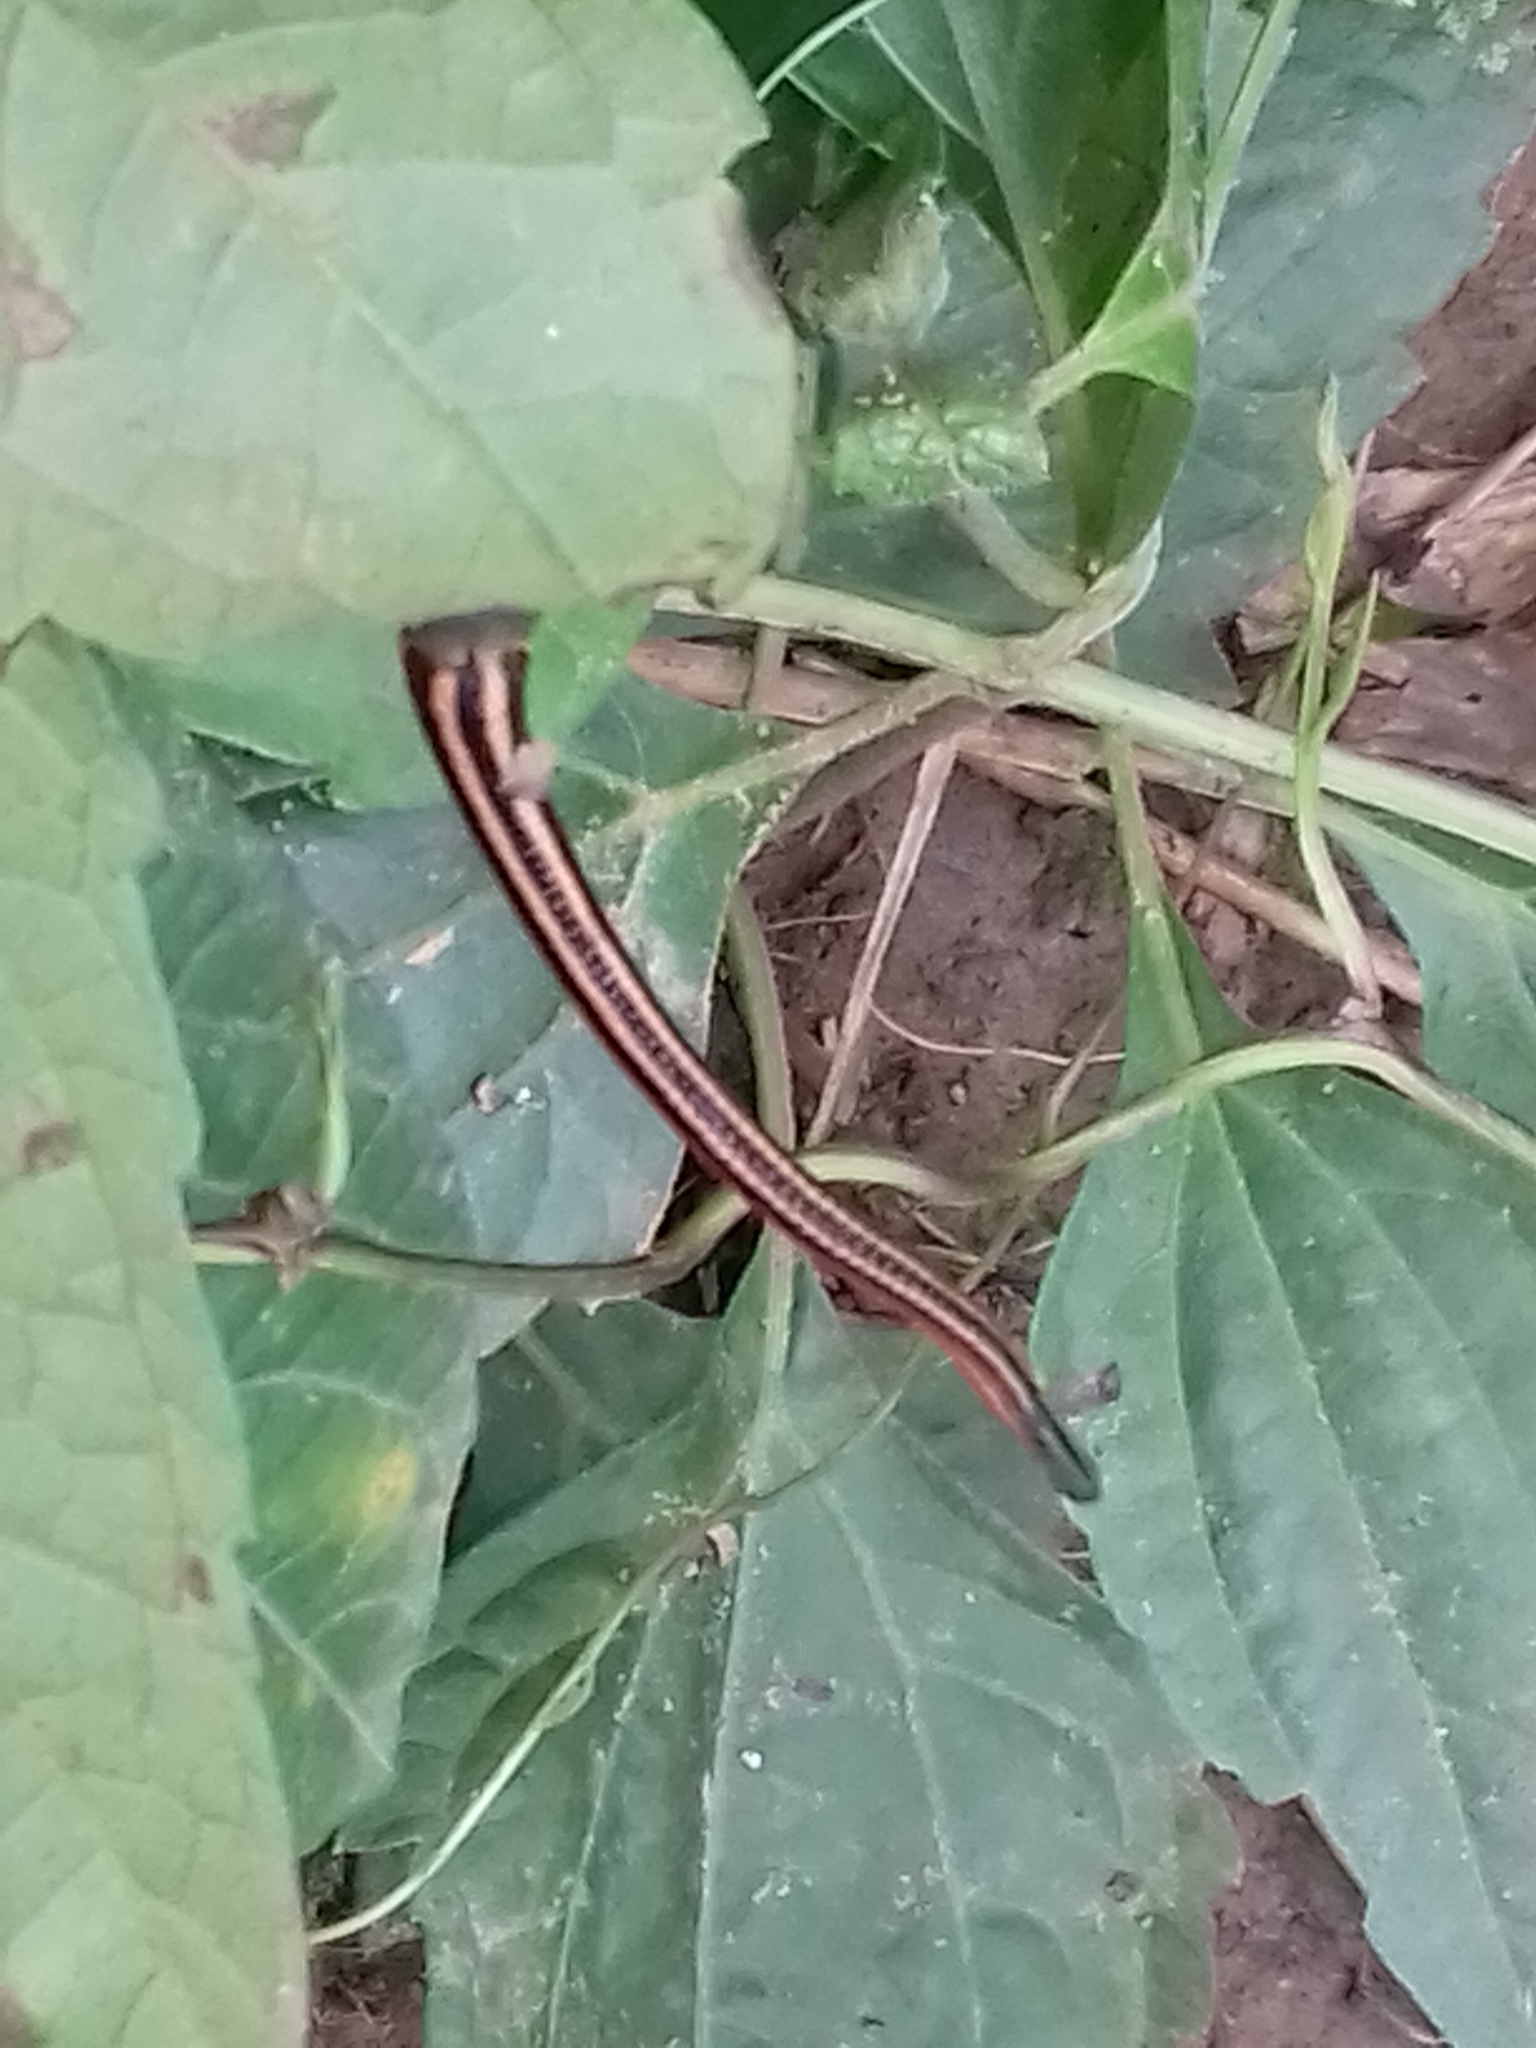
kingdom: Animalia
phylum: Annelida
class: Clitellata
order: Arhynchobdellida
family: Haemadipsidae
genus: Haemadipsa
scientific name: Haemadipsa ornata
